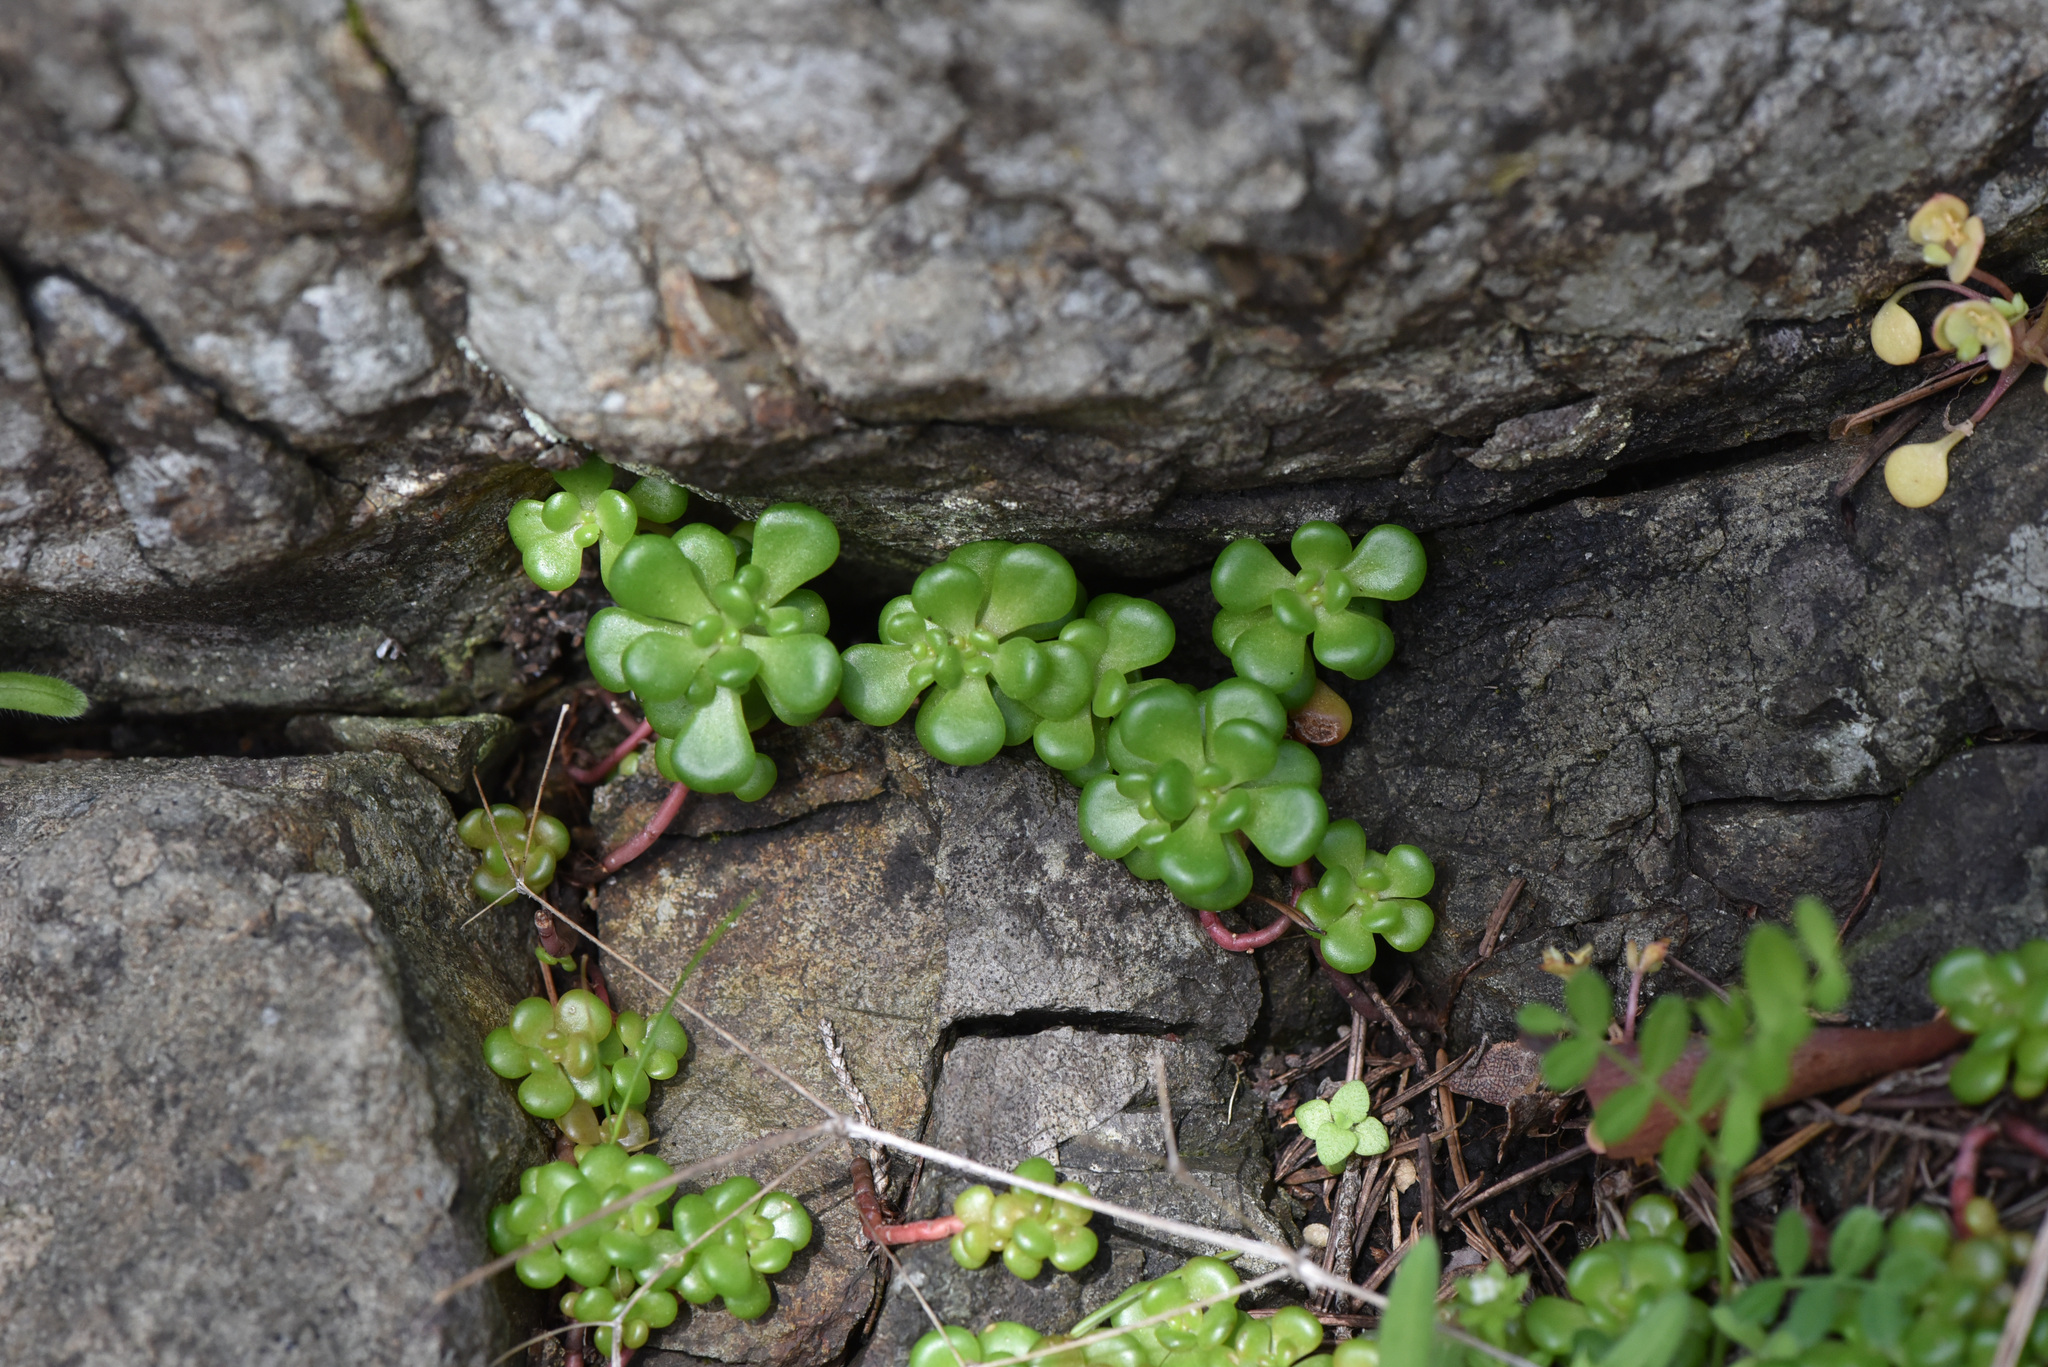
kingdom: Plantae
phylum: Tracheophyta
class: Magnoliopsida
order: Saxifragales
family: Crassulaceae
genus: Sedum
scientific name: Sedum oreganum
